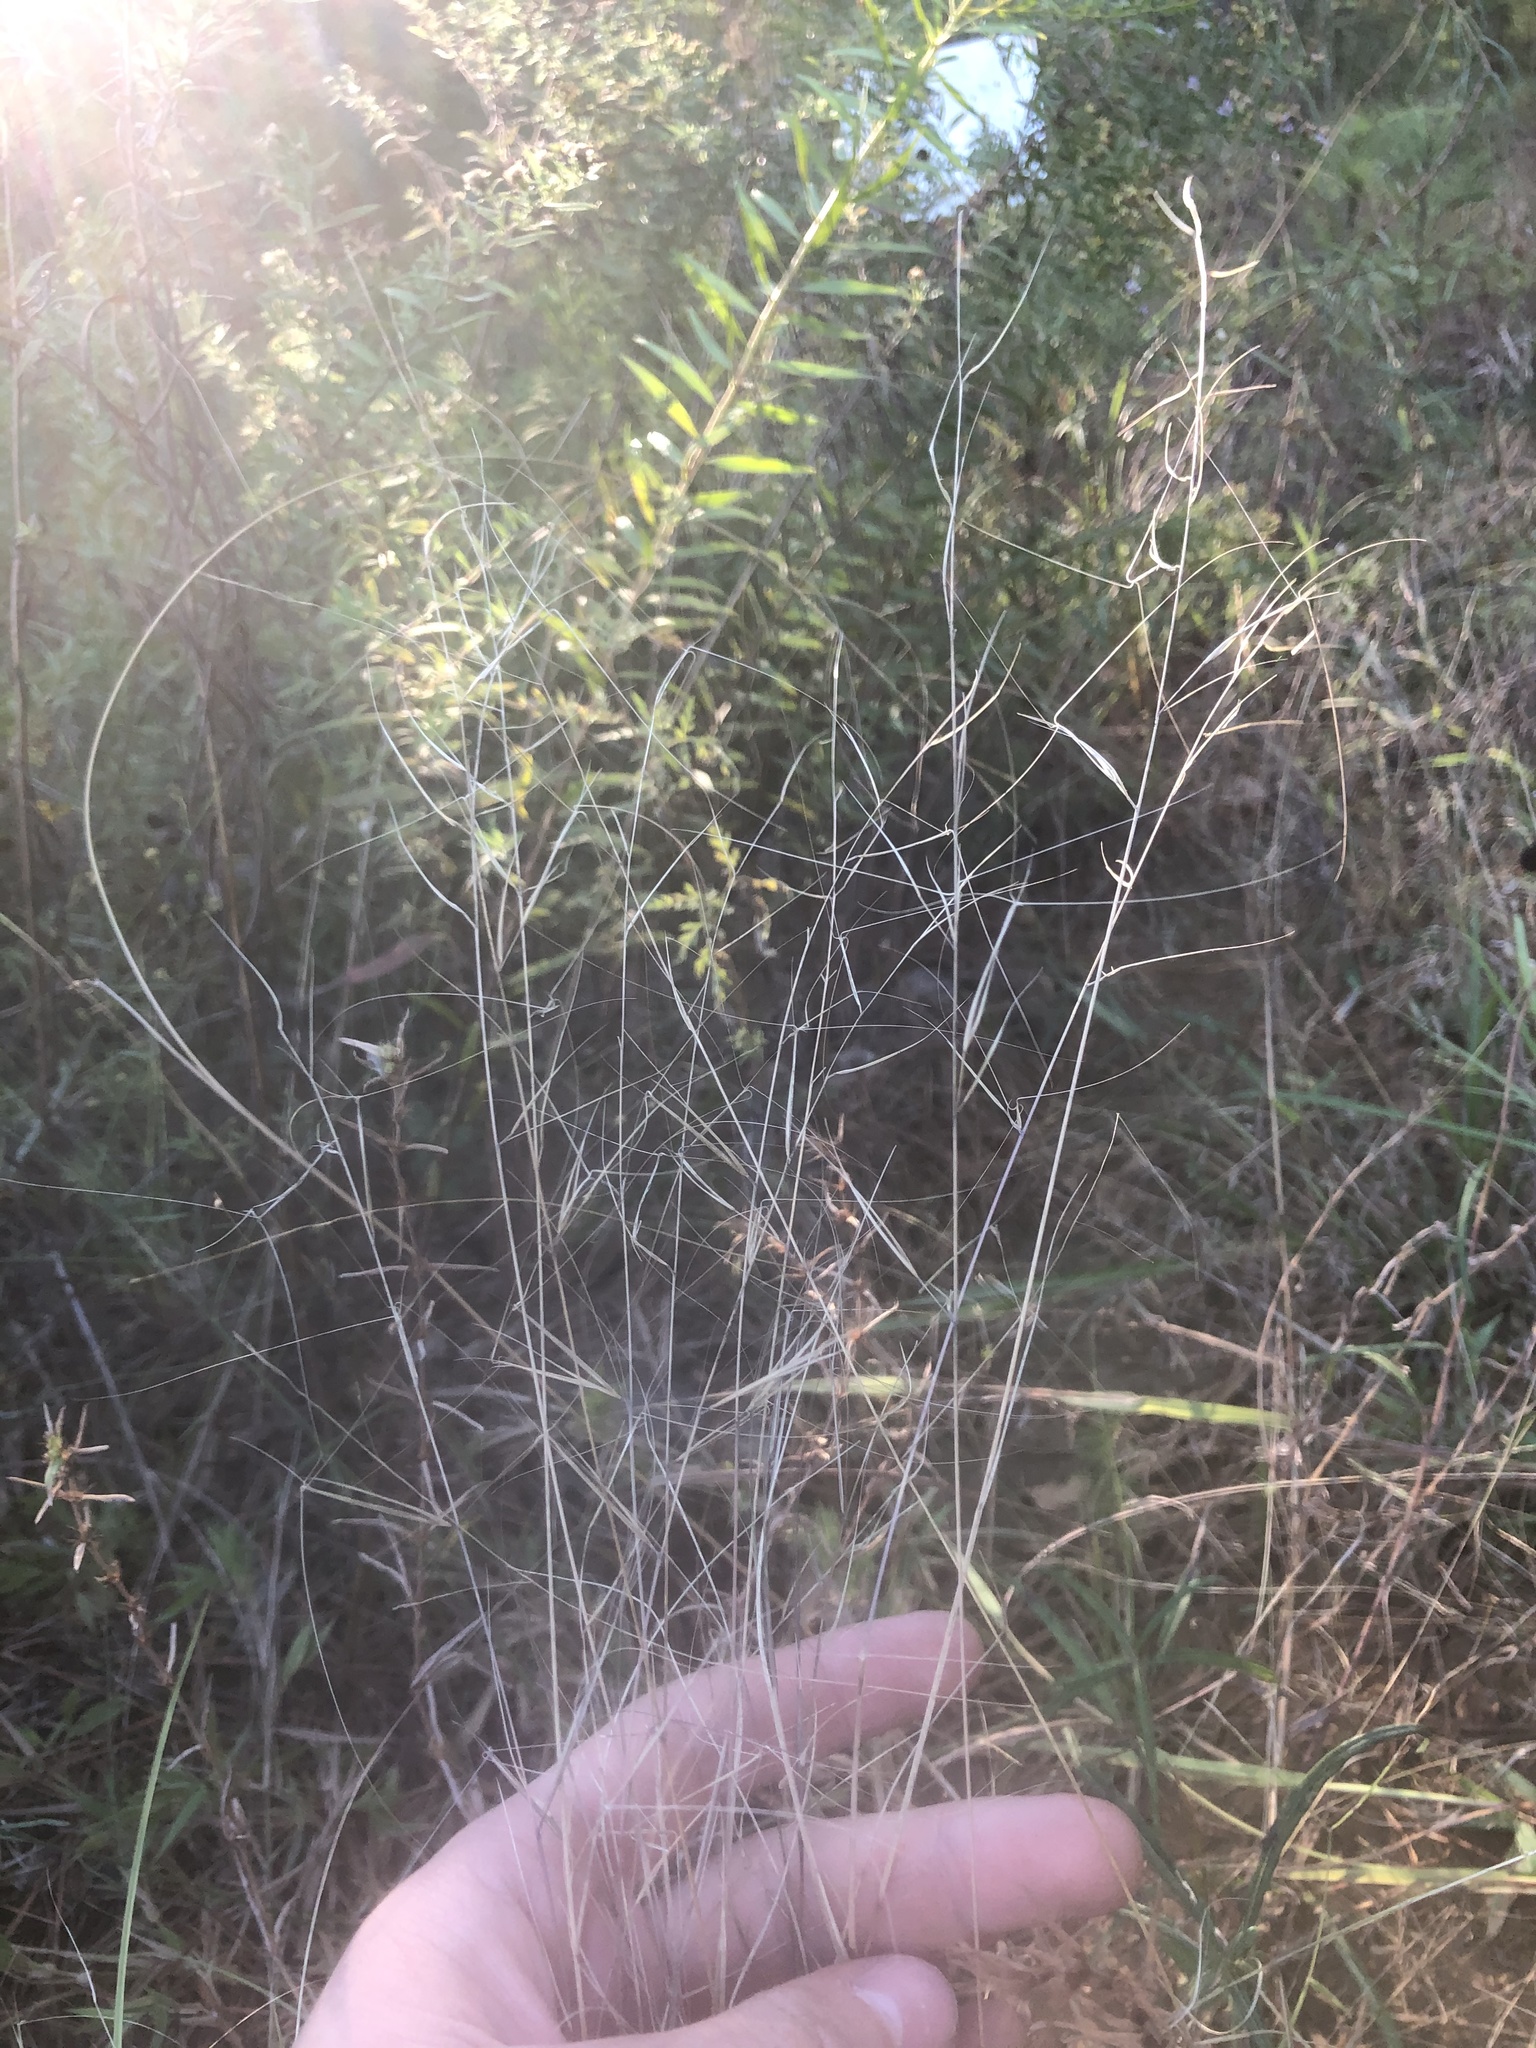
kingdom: Plantae
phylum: Tracheophyta
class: Liliopsida
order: Poales
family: Poaceae
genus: Aristida
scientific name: Aristida oligantha
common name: Few-flowered aristida
